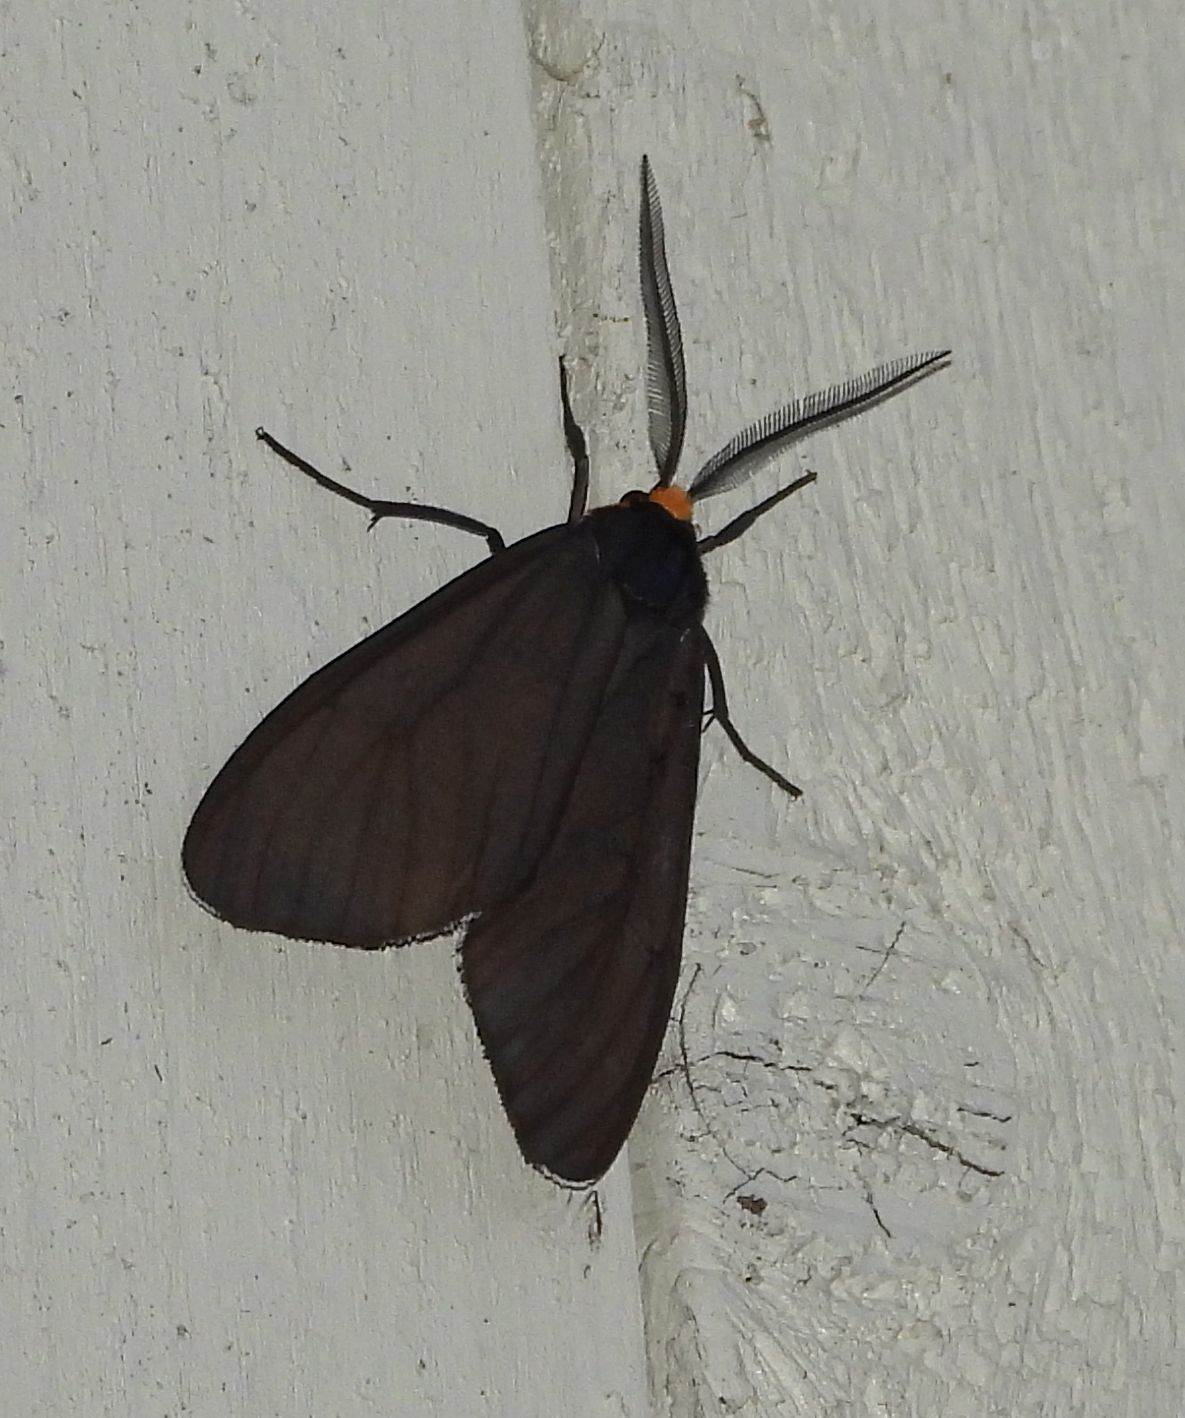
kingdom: Animalia
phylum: Arthropoda
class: Insecta
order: Lepidoptera
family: Erebidae
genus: Ctenucha
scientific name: Ctenucha virginica
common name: Virginia ctenucha moth
